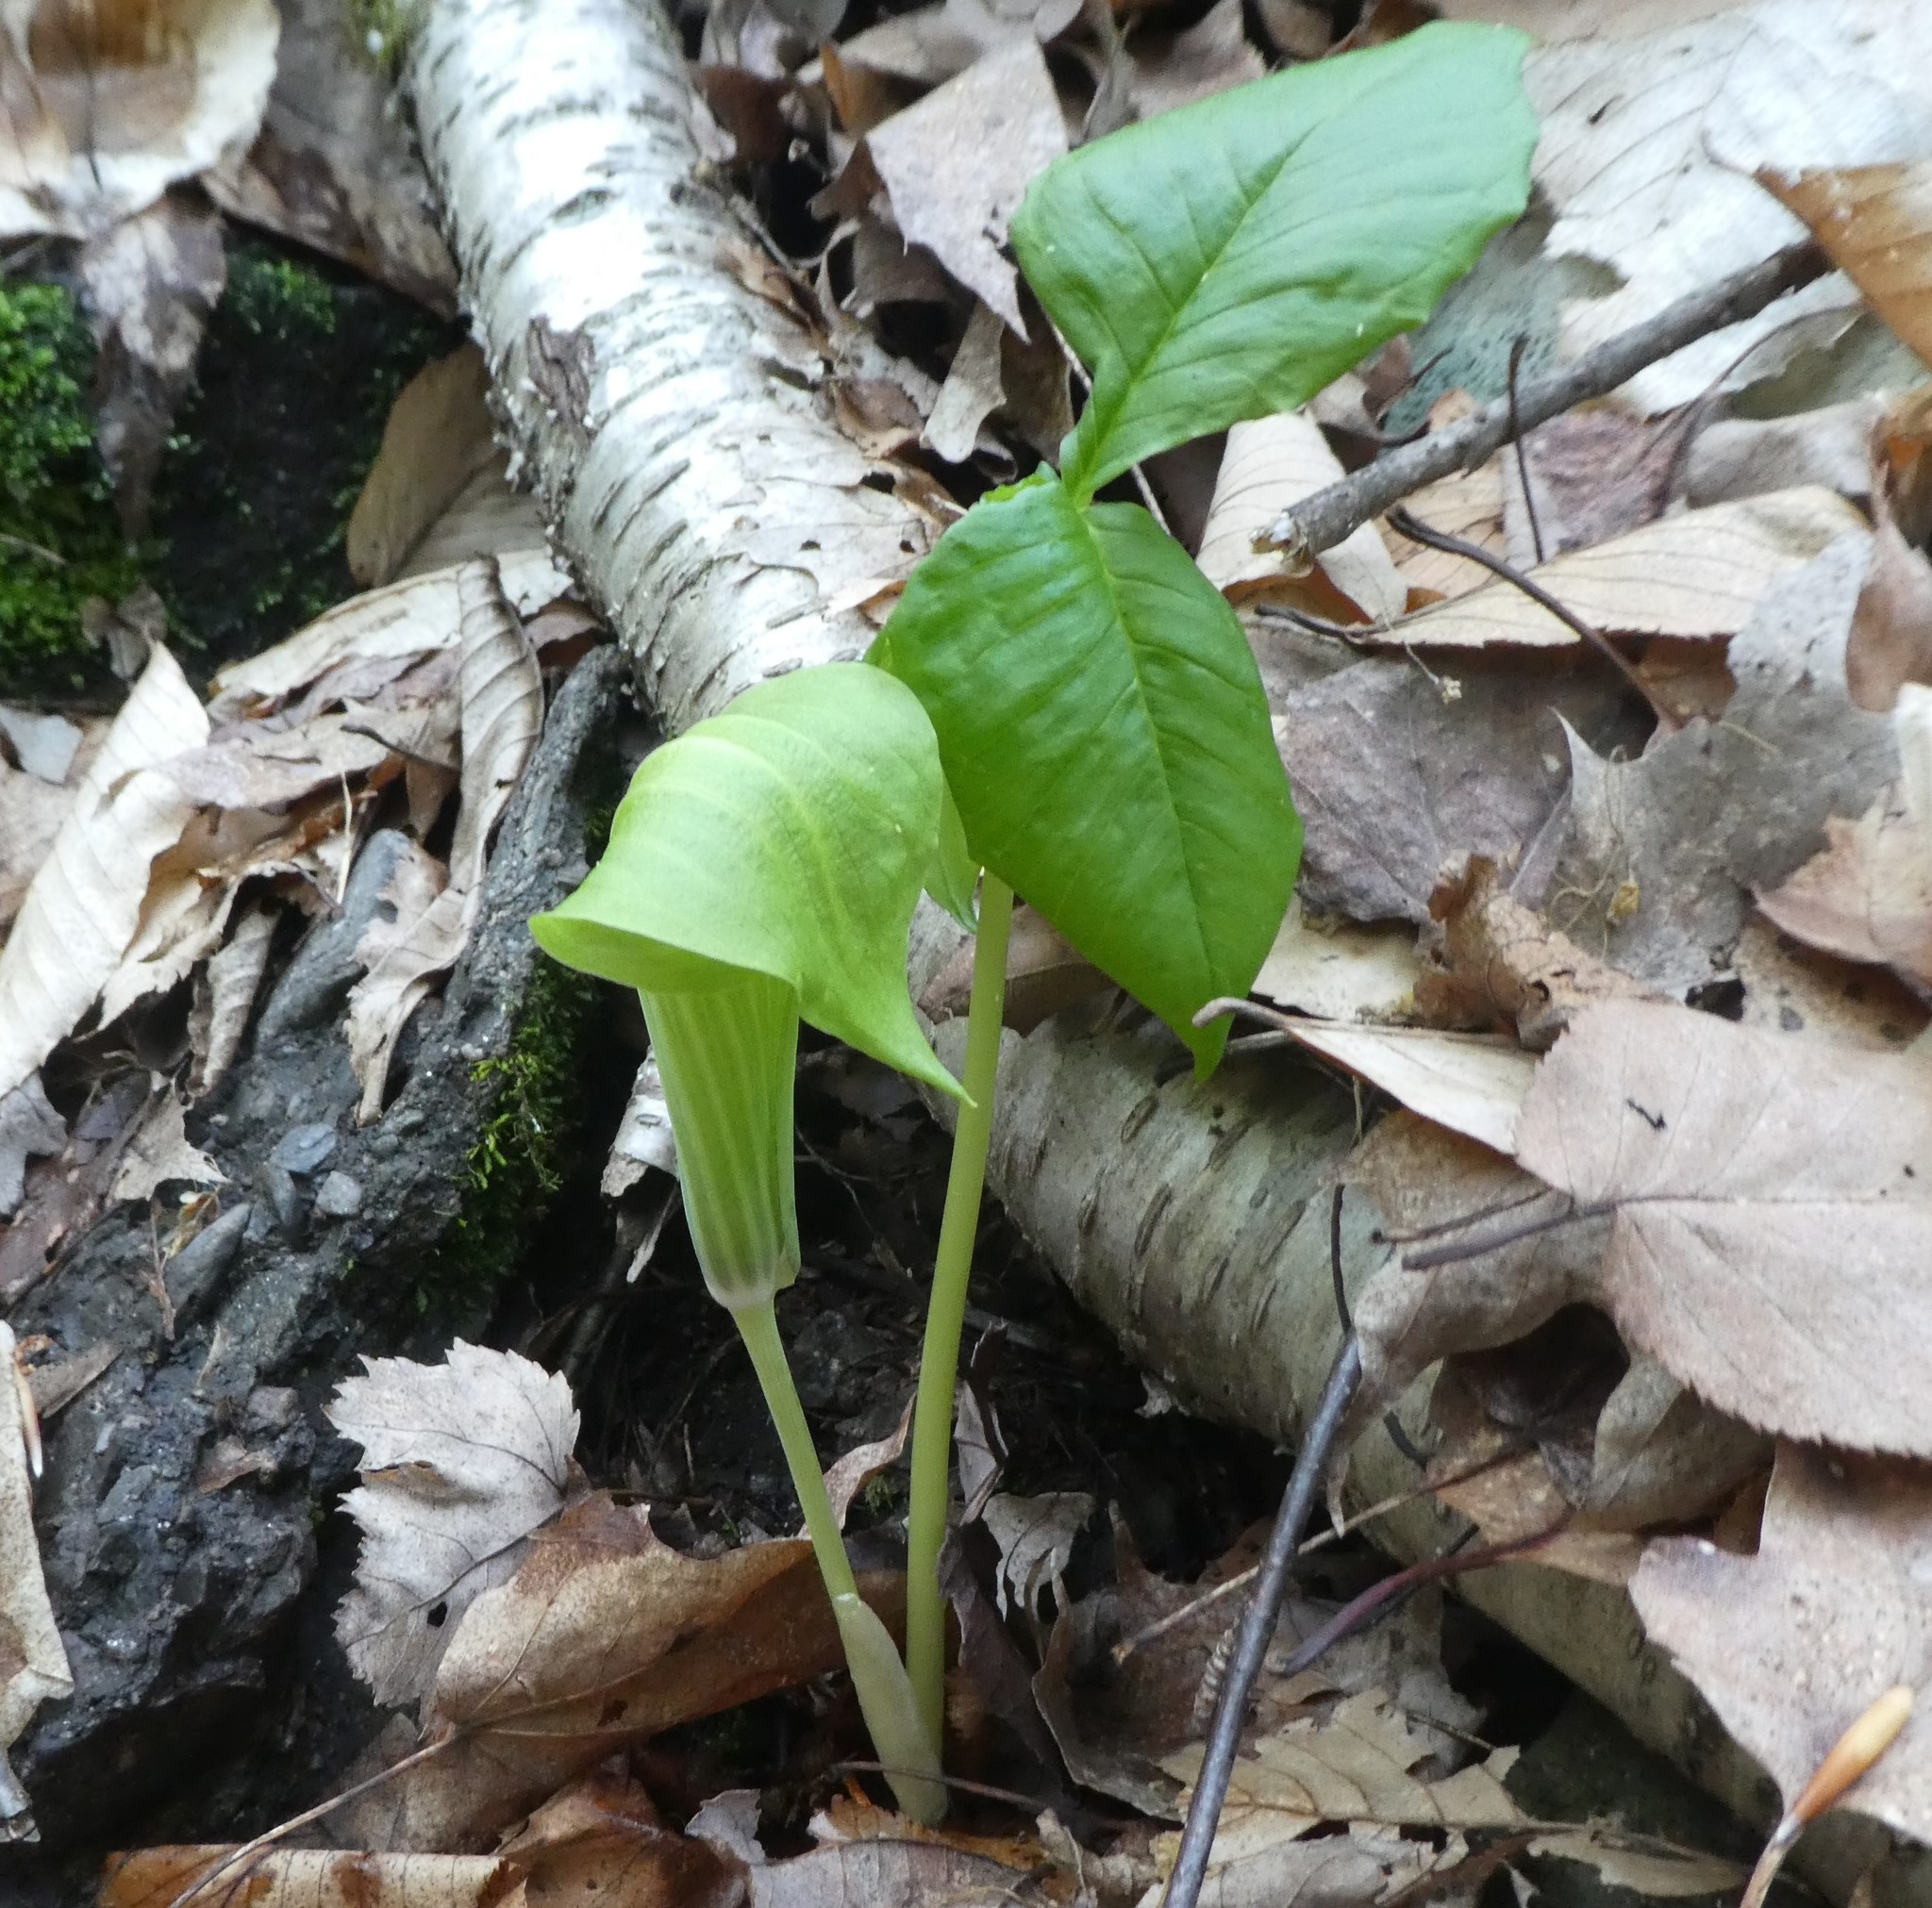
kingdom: Plantae
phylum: Tracheophyta
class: Liliopsida
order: Alismatales
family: Araceae
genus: Arisaema
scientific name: Arisaema triphyllum
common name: Jack-in-the-pulpit
